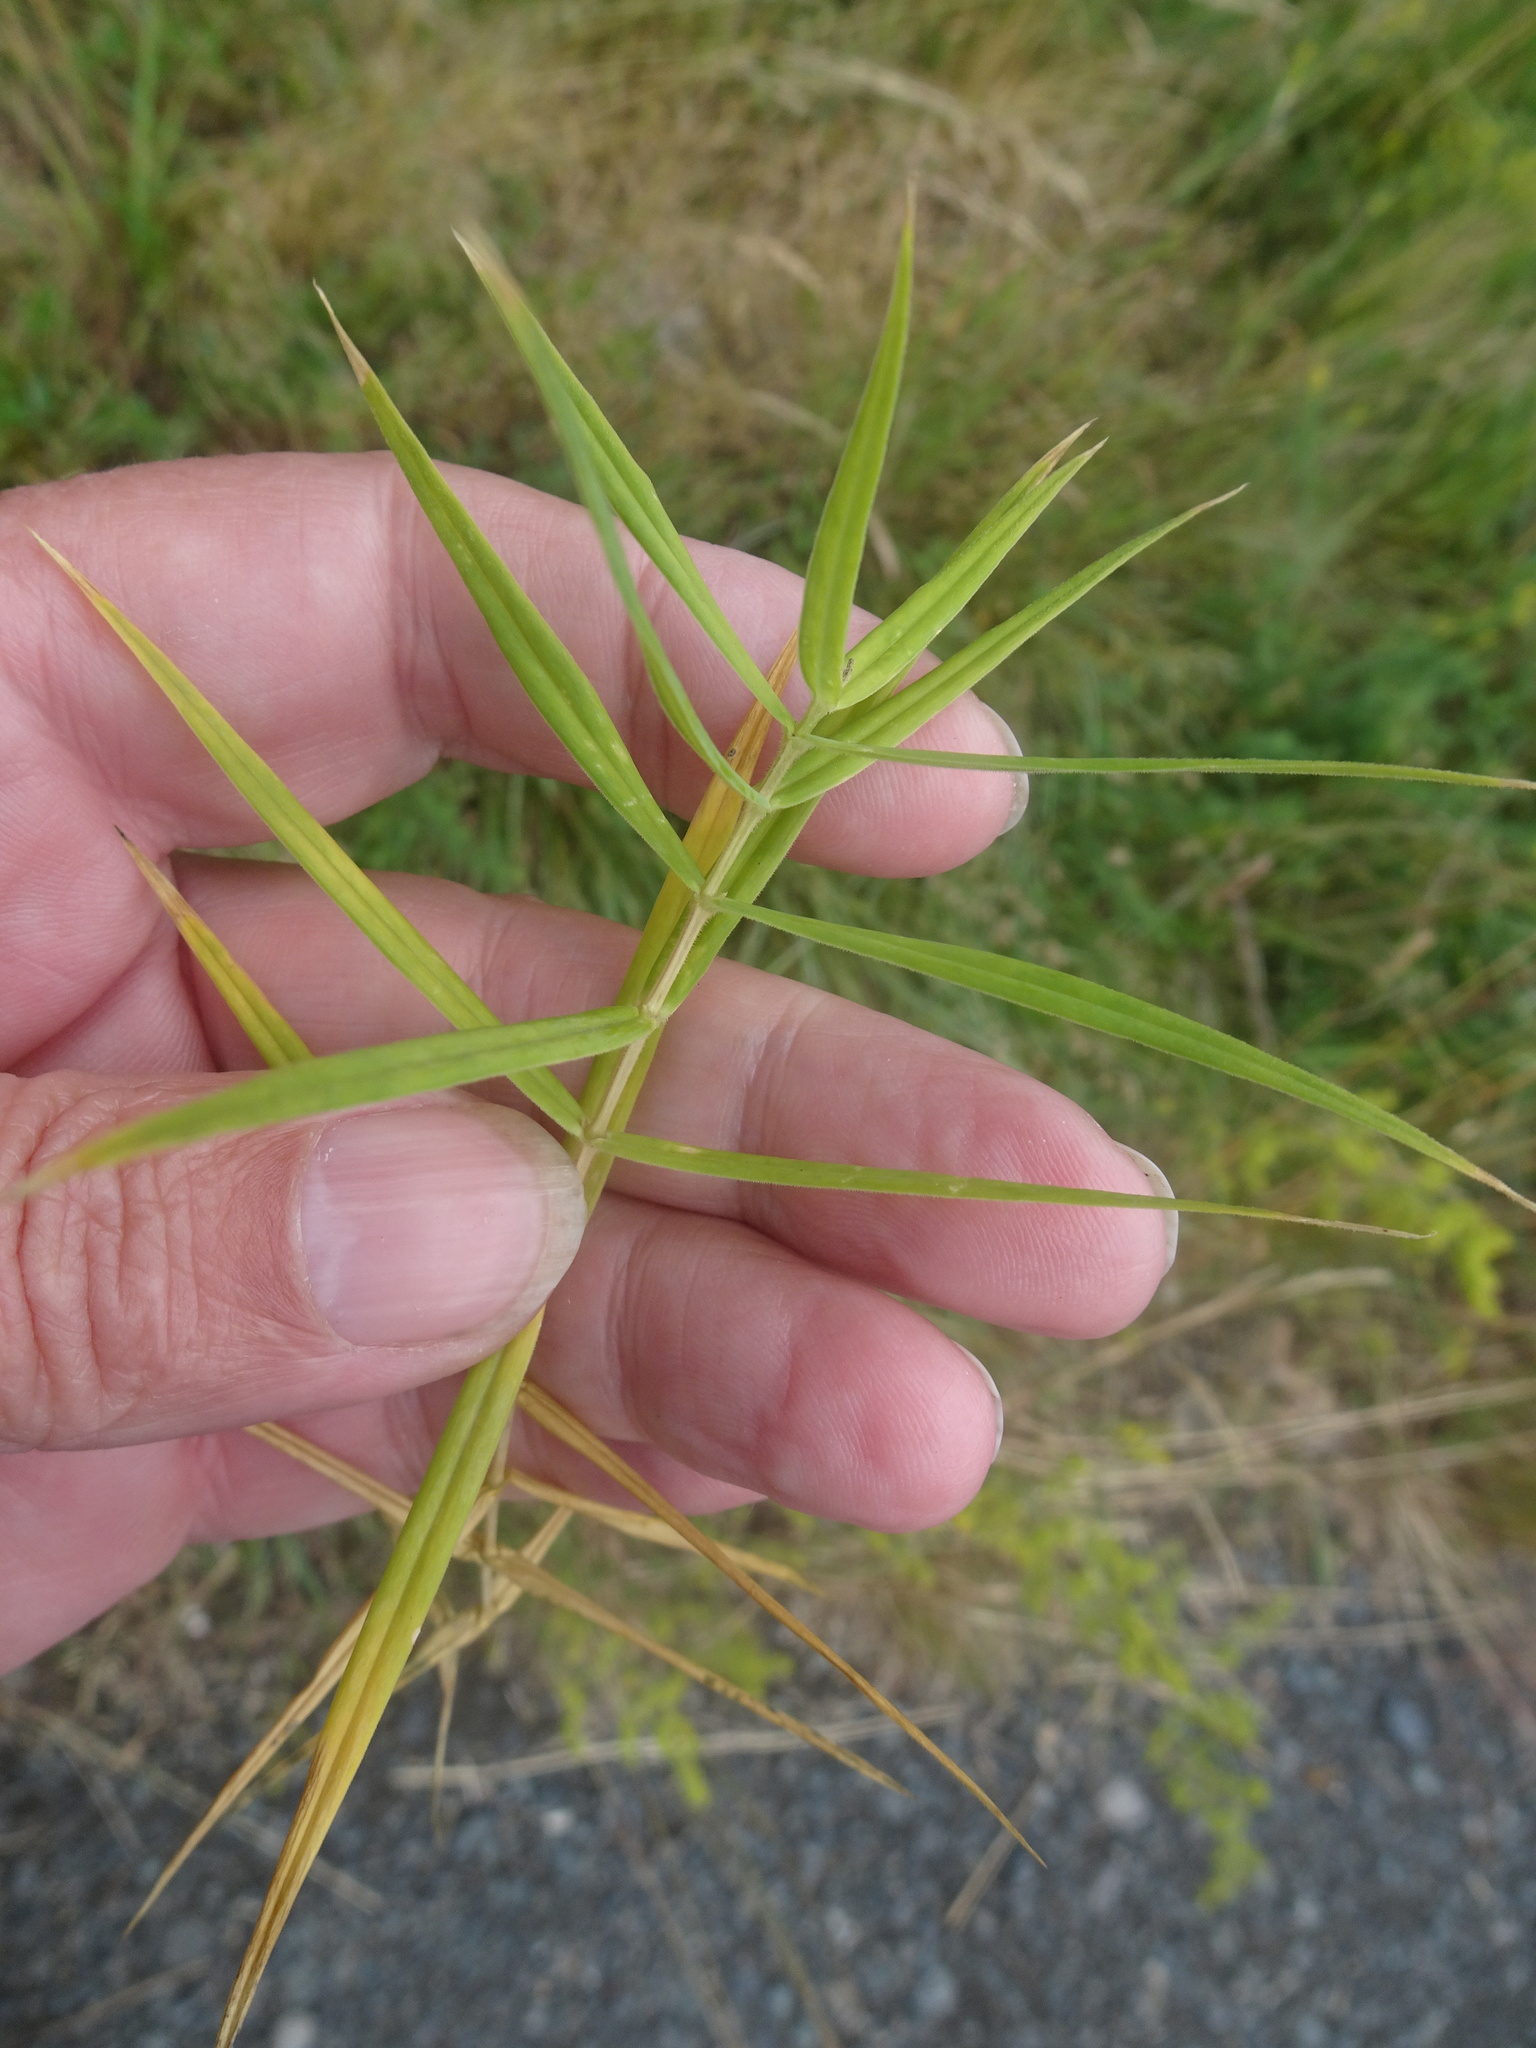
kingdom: Plantae
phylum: Tracheophyta
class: Magnoliopsida
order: Caryophyllales
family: Caryophyllaceae
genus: Rabelera
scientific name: Rabelera holostea
